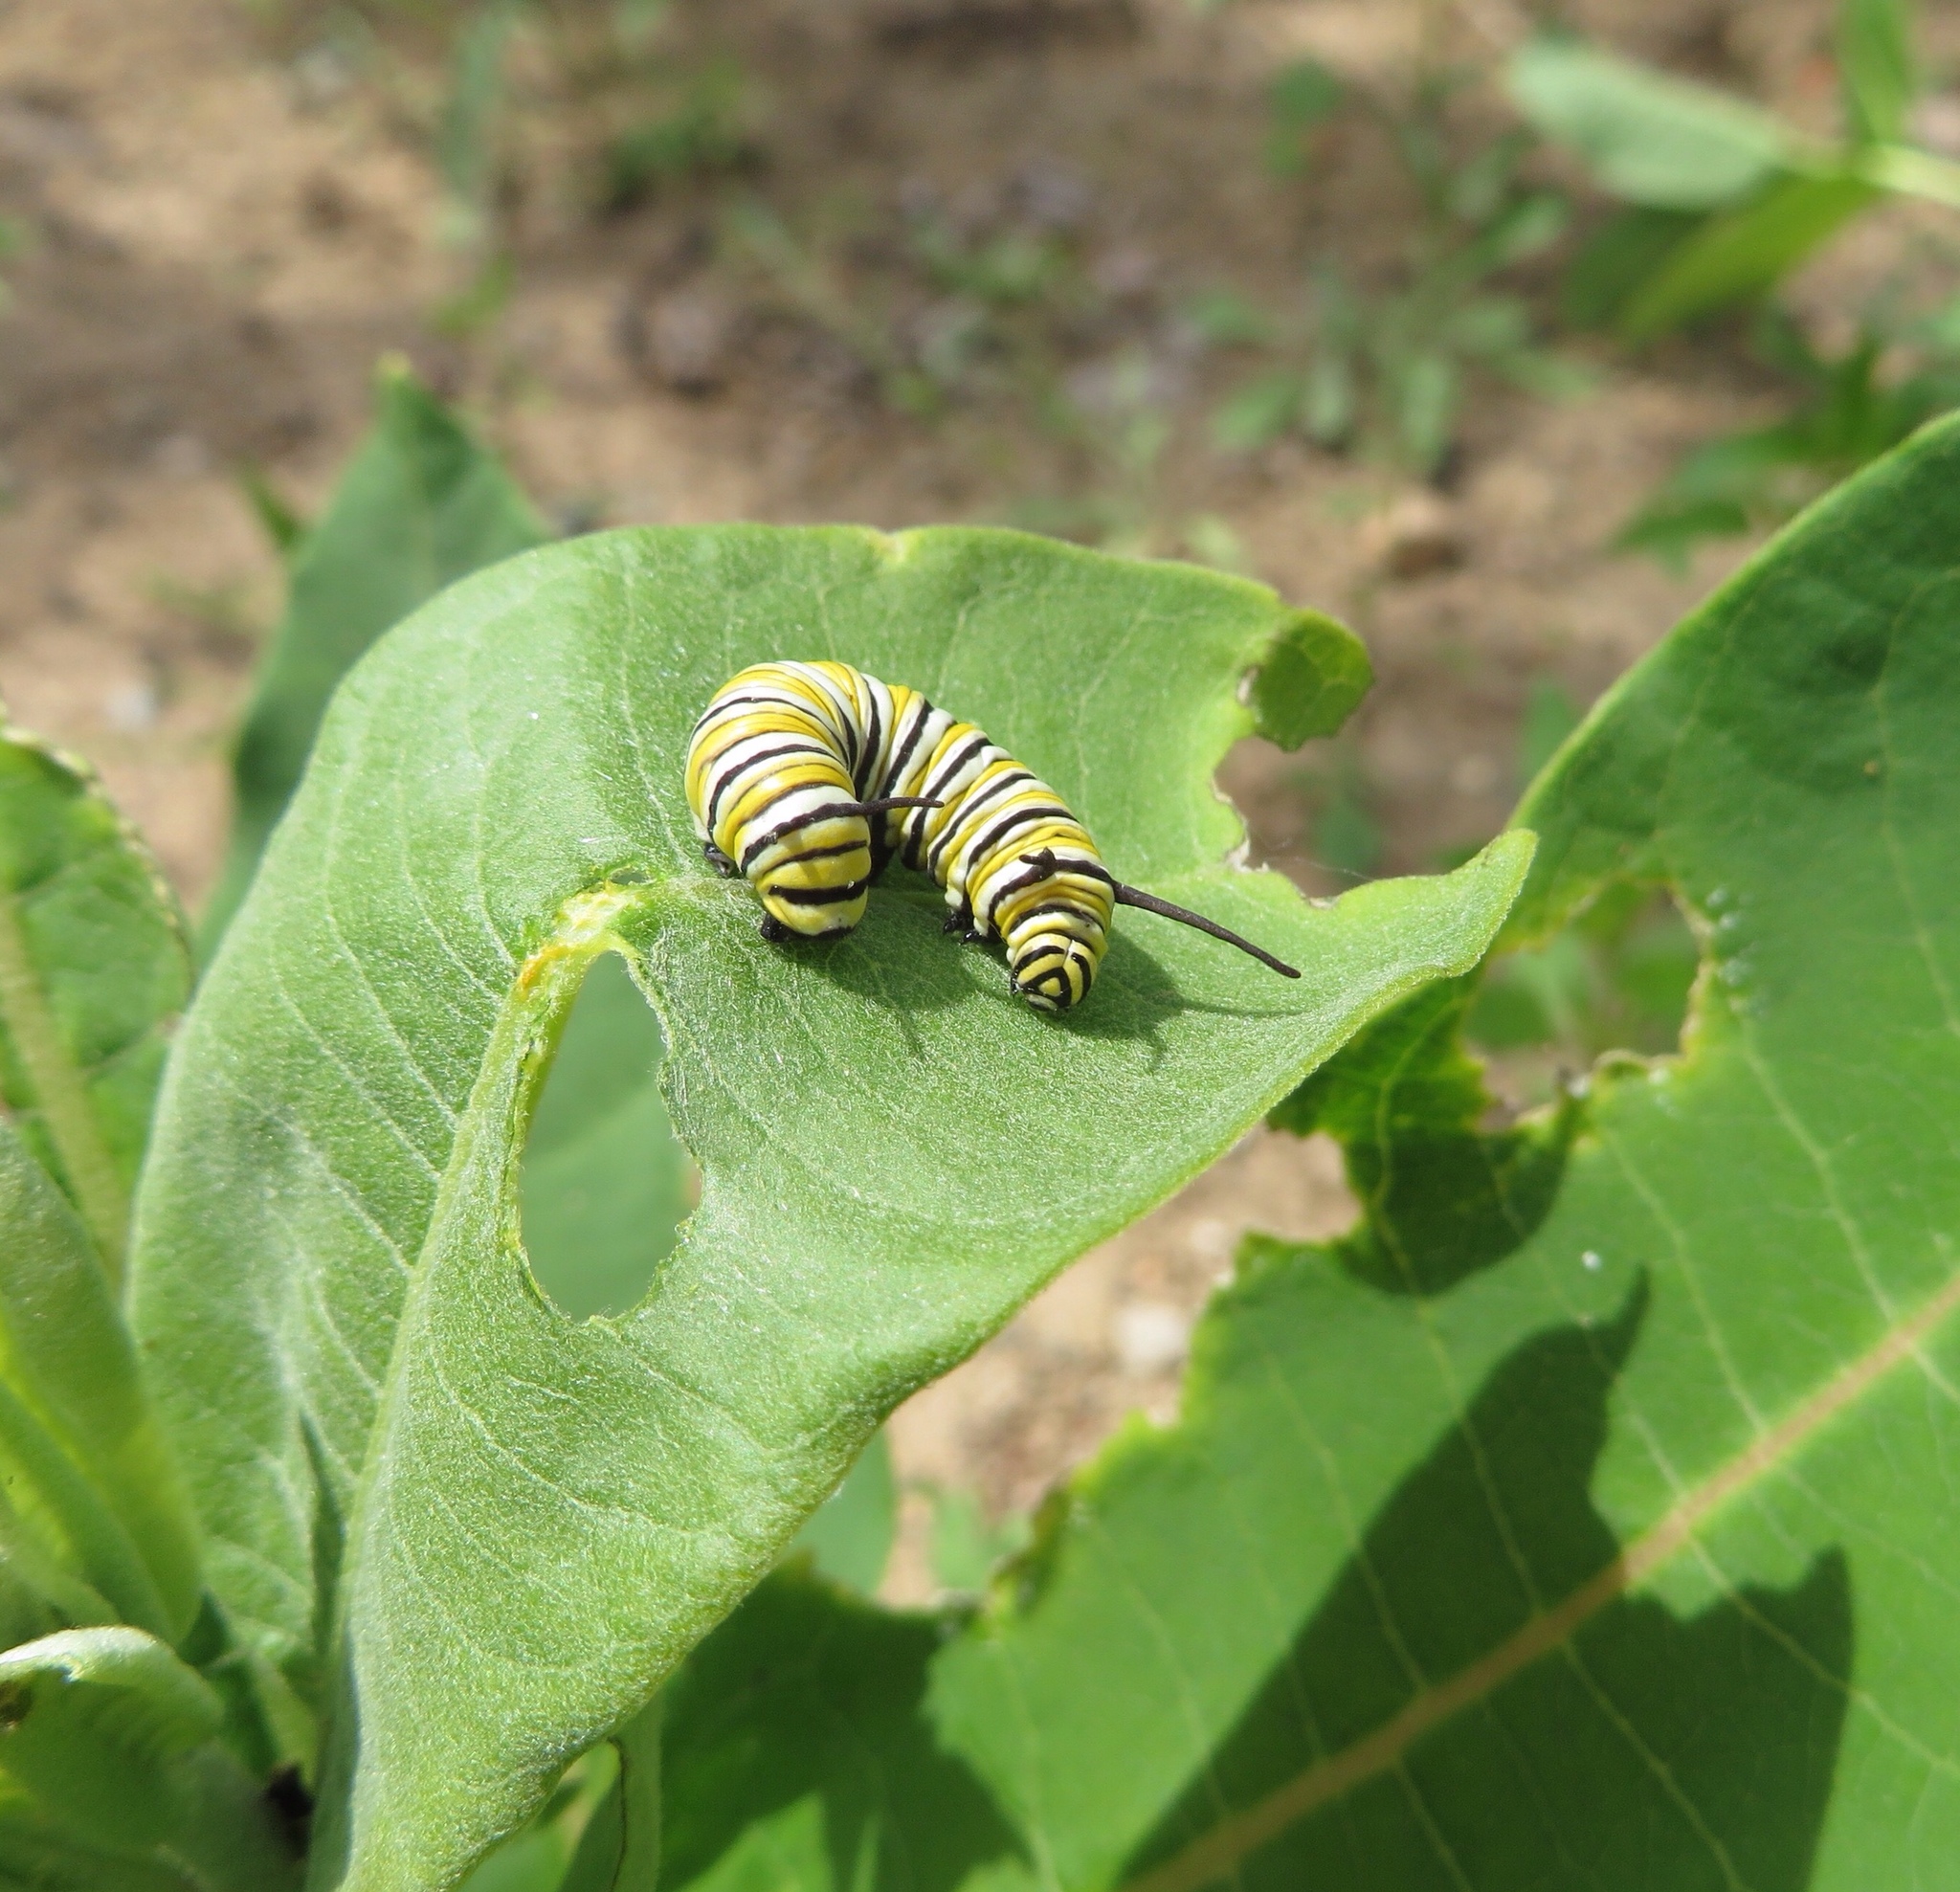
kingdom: Animalia
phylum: Arthropoda
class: Insecta
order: Lepidoptera
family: Nymphalidae
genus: Danaus
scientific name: Danaus plexippus
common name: Monarch
